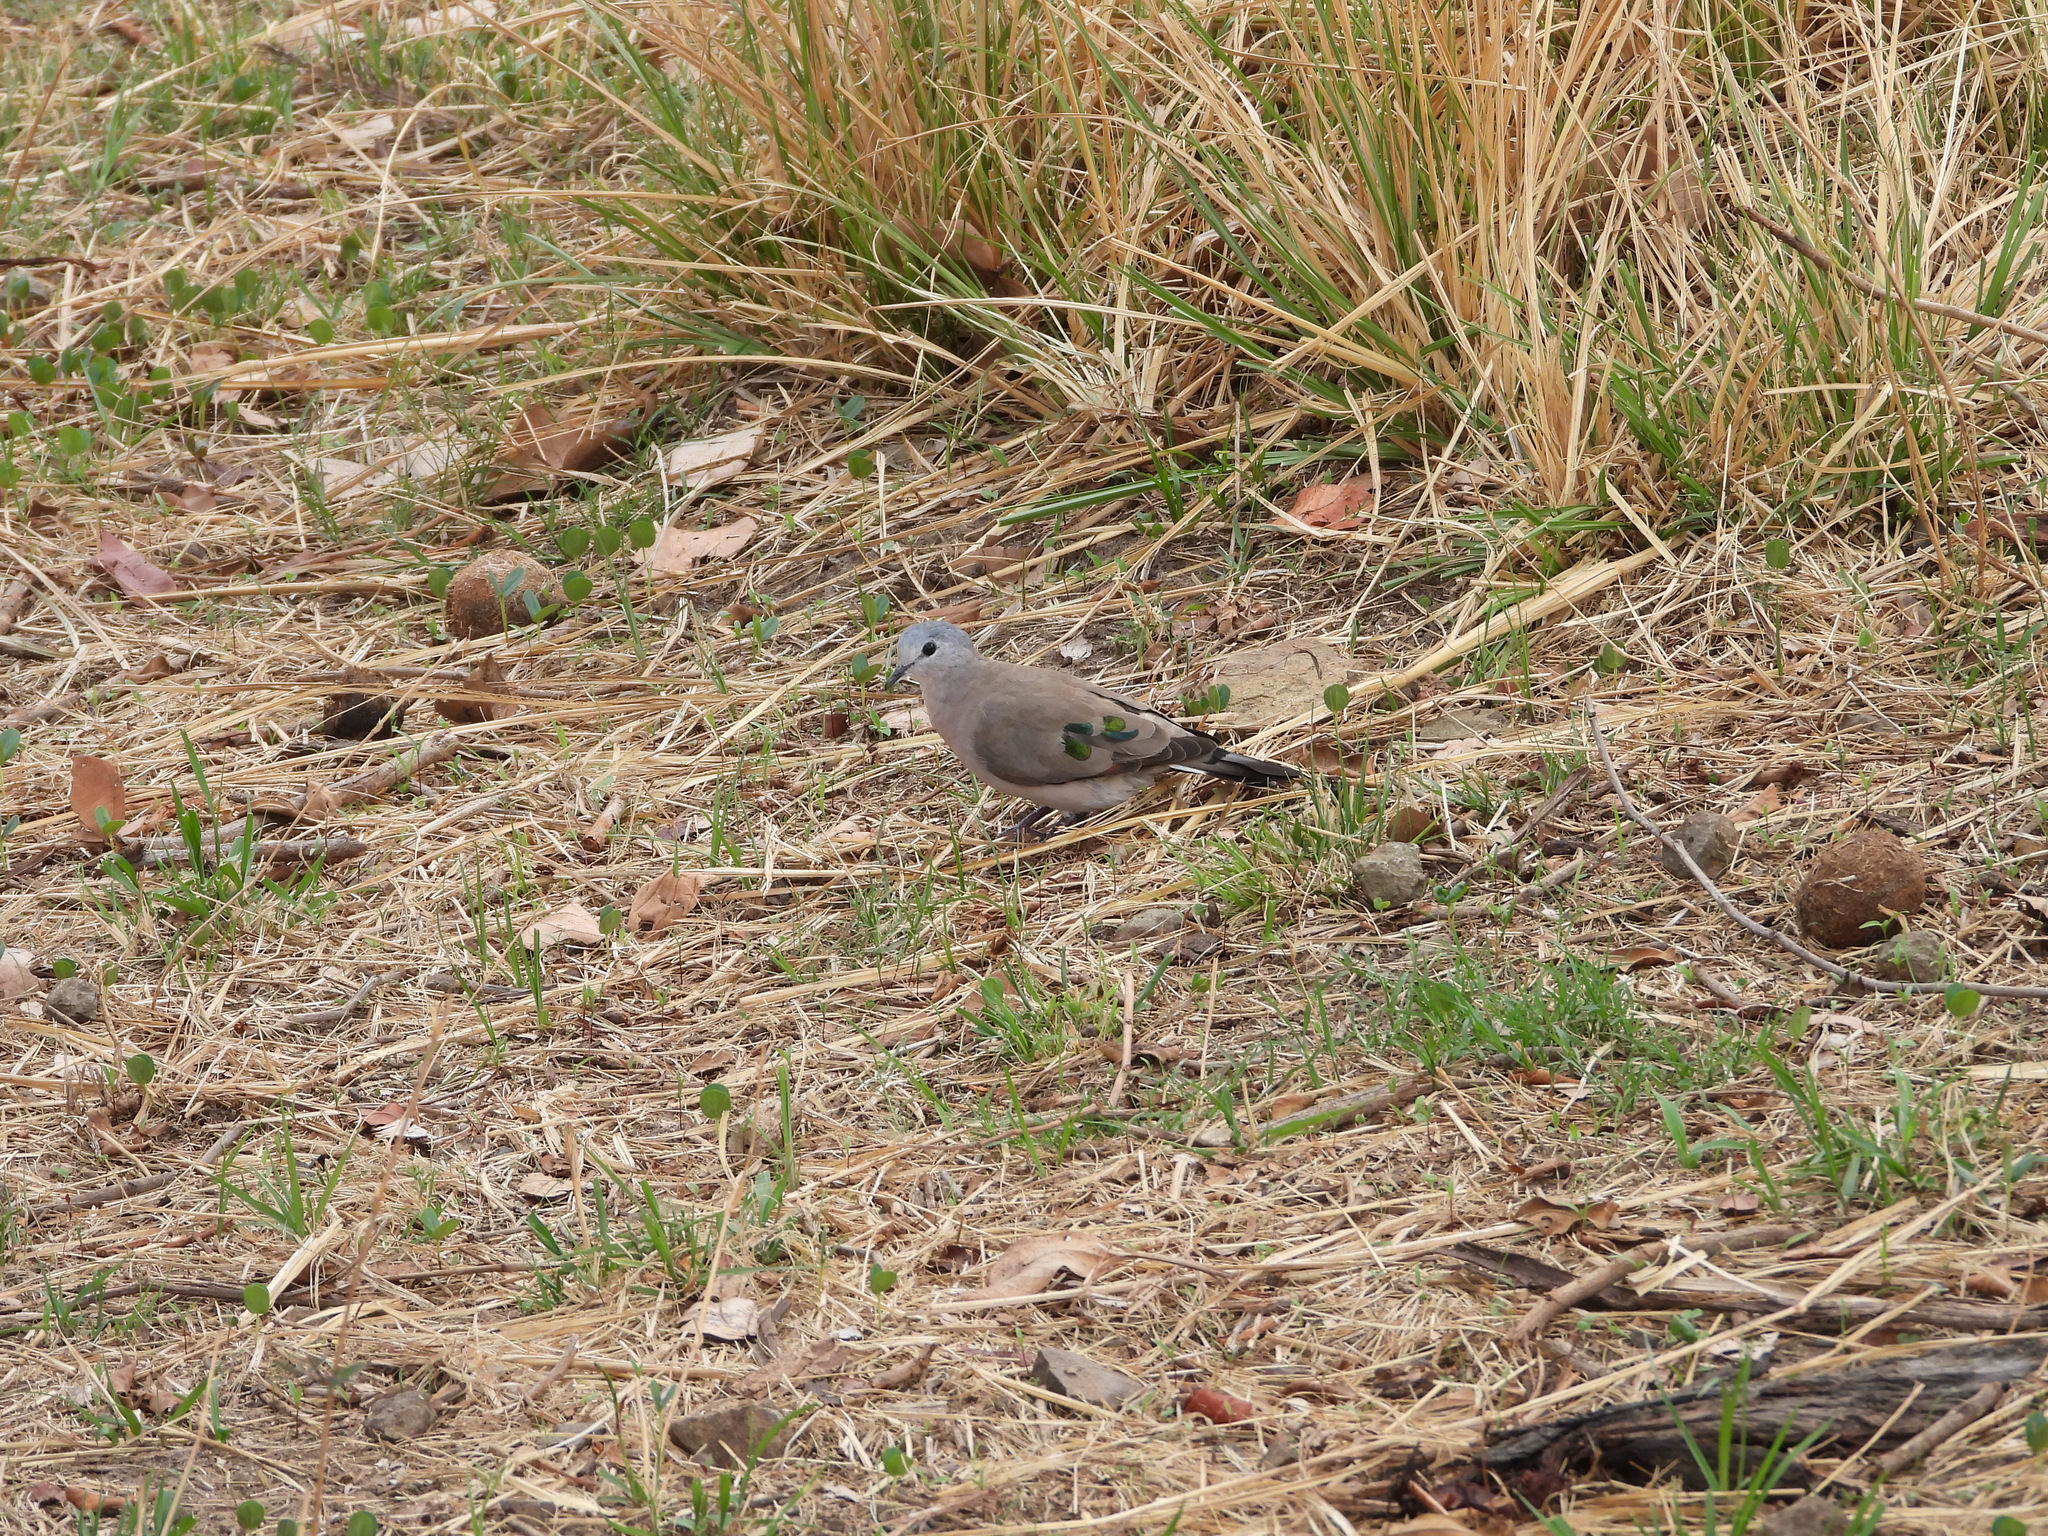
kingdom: Animalia
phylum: Chordata
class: Aves
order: Columbiformes
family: Columbidae
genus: Turtur
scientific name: Turtur chalcospilos
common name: Emerald-spotted wood dove
